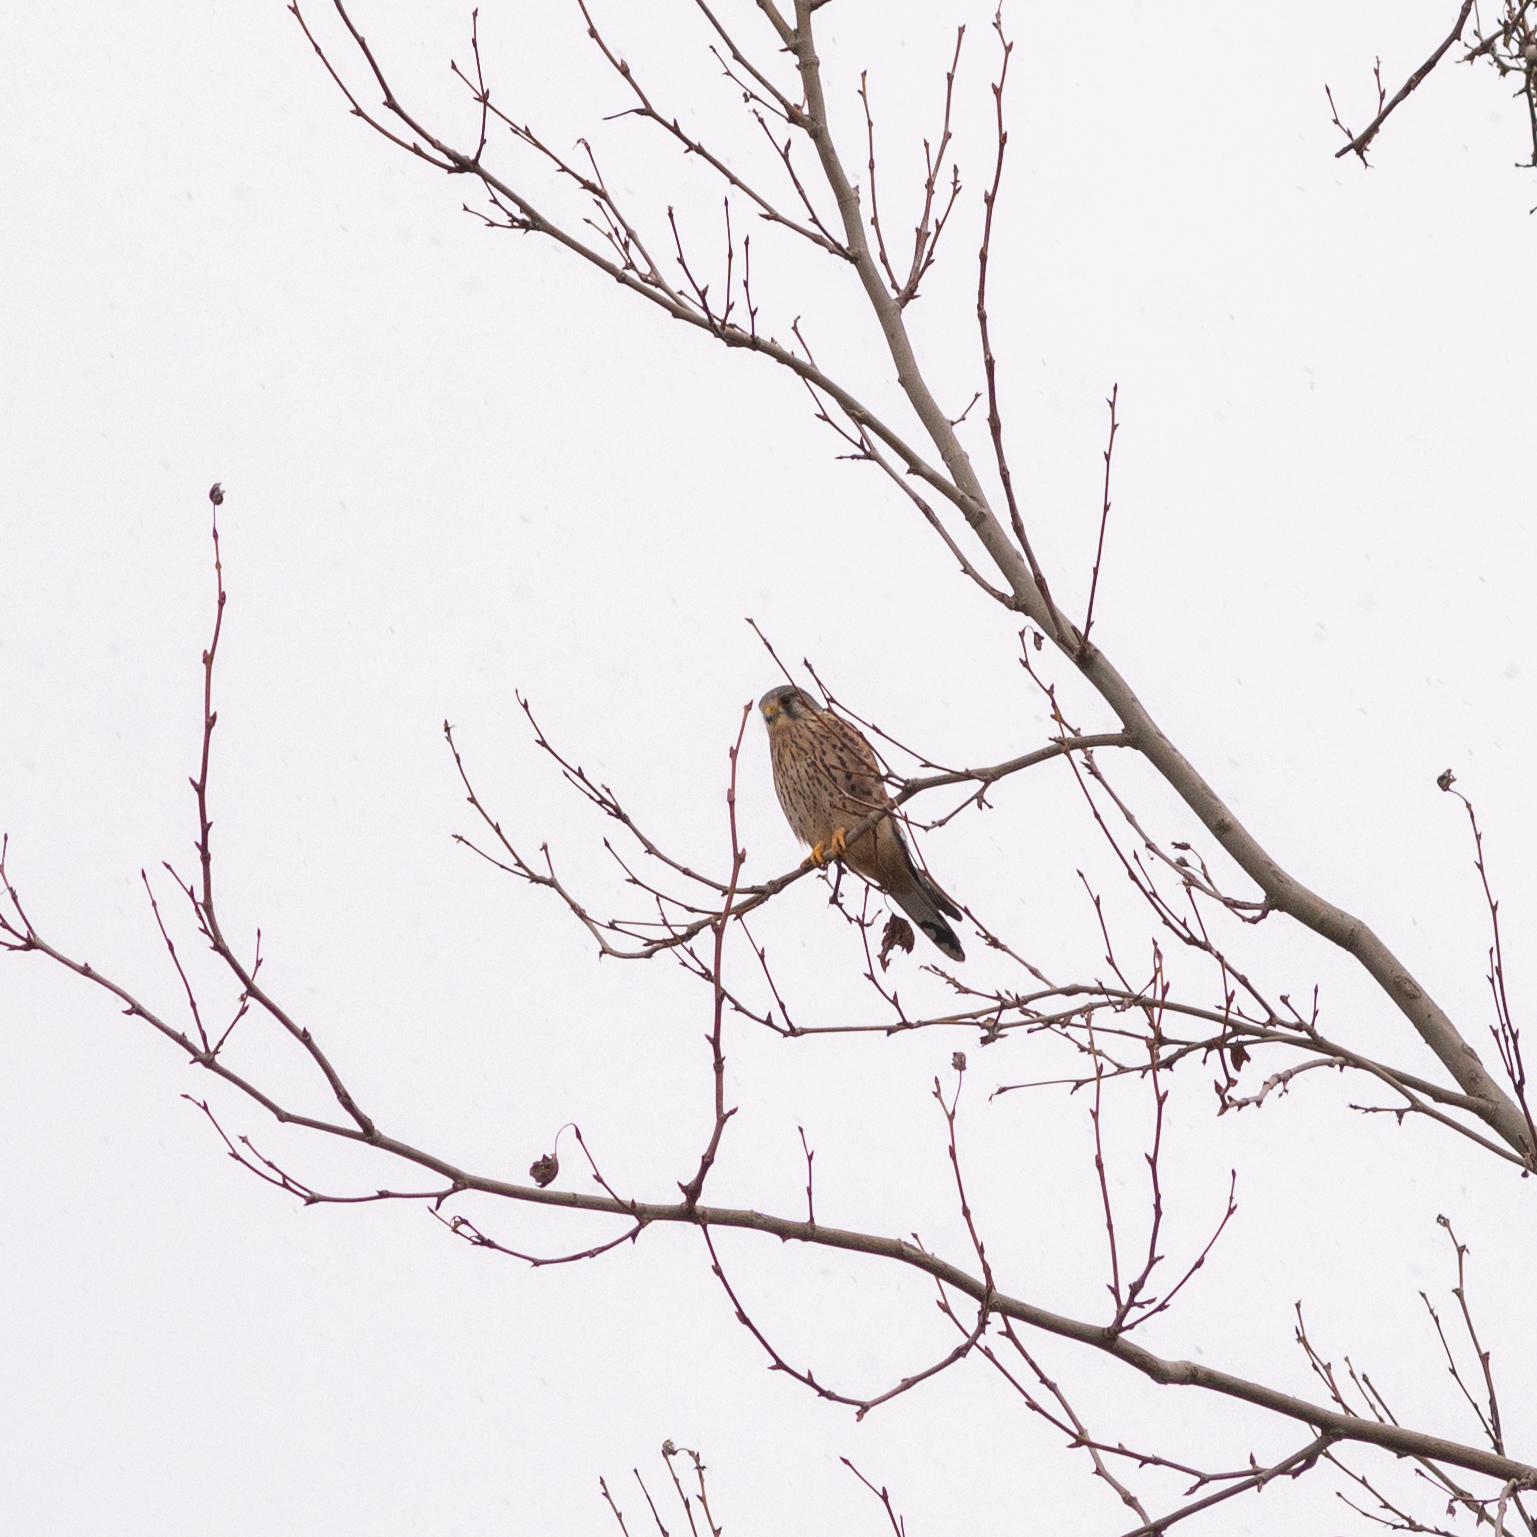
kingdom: Animalia
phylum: Chordata
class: Aves
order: Falconiformes
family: Falconidae
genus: Falco
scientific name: Falco tinnunculus
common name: Common kestrel
